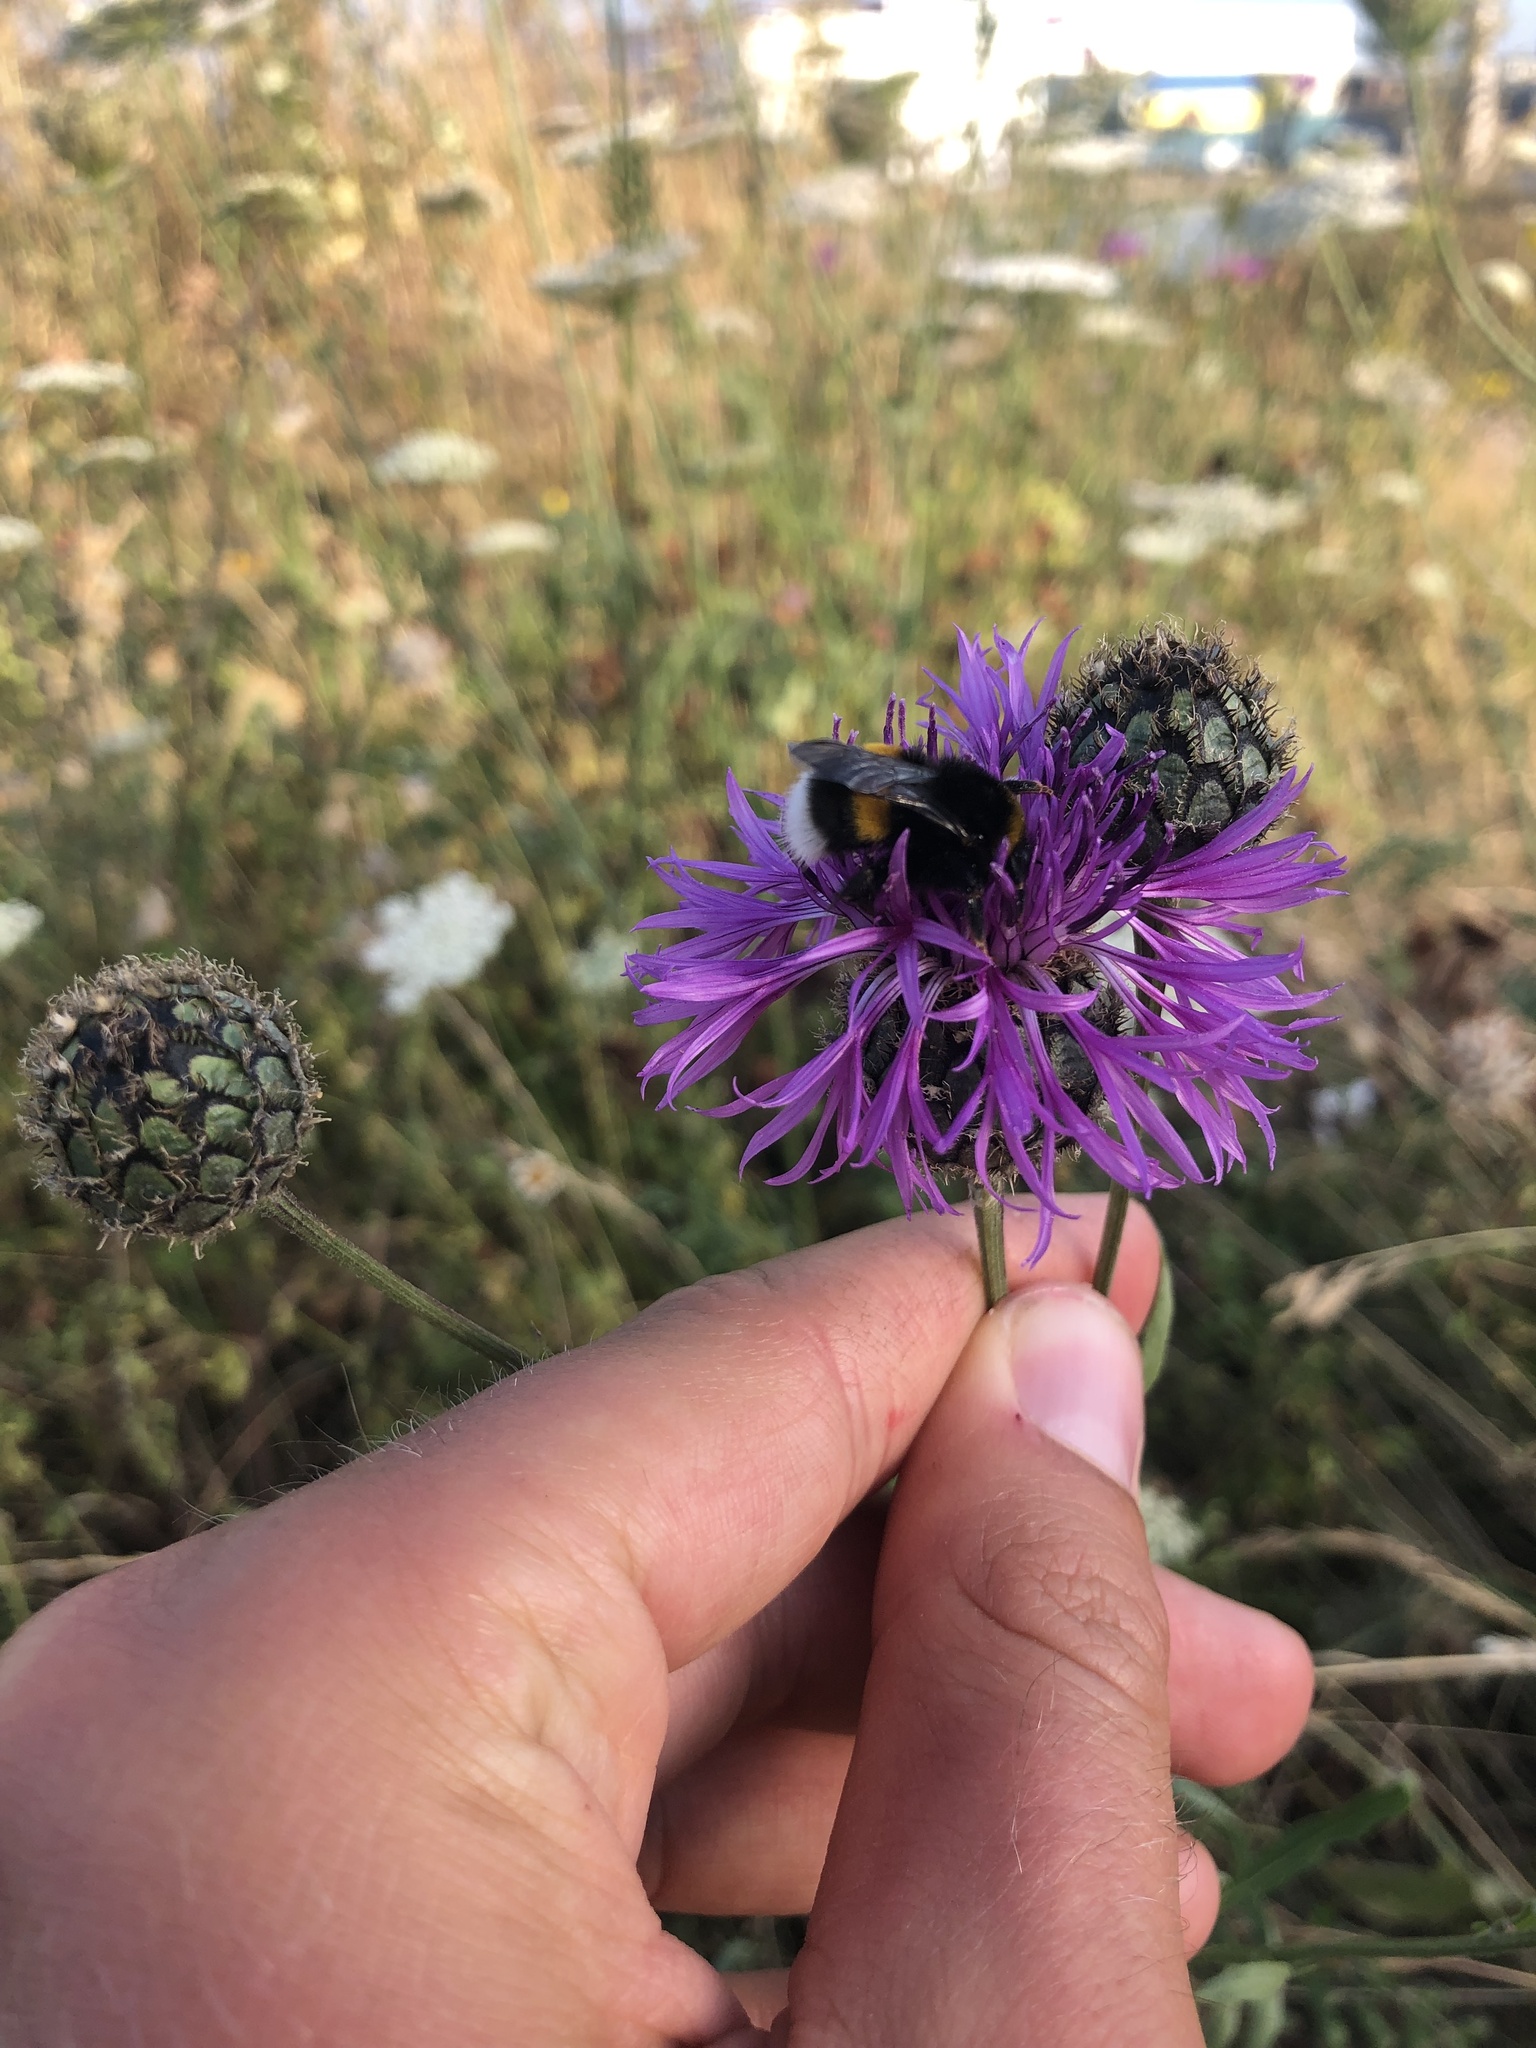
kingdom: Plantae
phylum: Tracheophyta
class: Magnoliopsida
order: Asterales
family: Asteraceae
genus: Centaurea
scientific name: Centaurea scabiosa
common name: Greater knapweed
